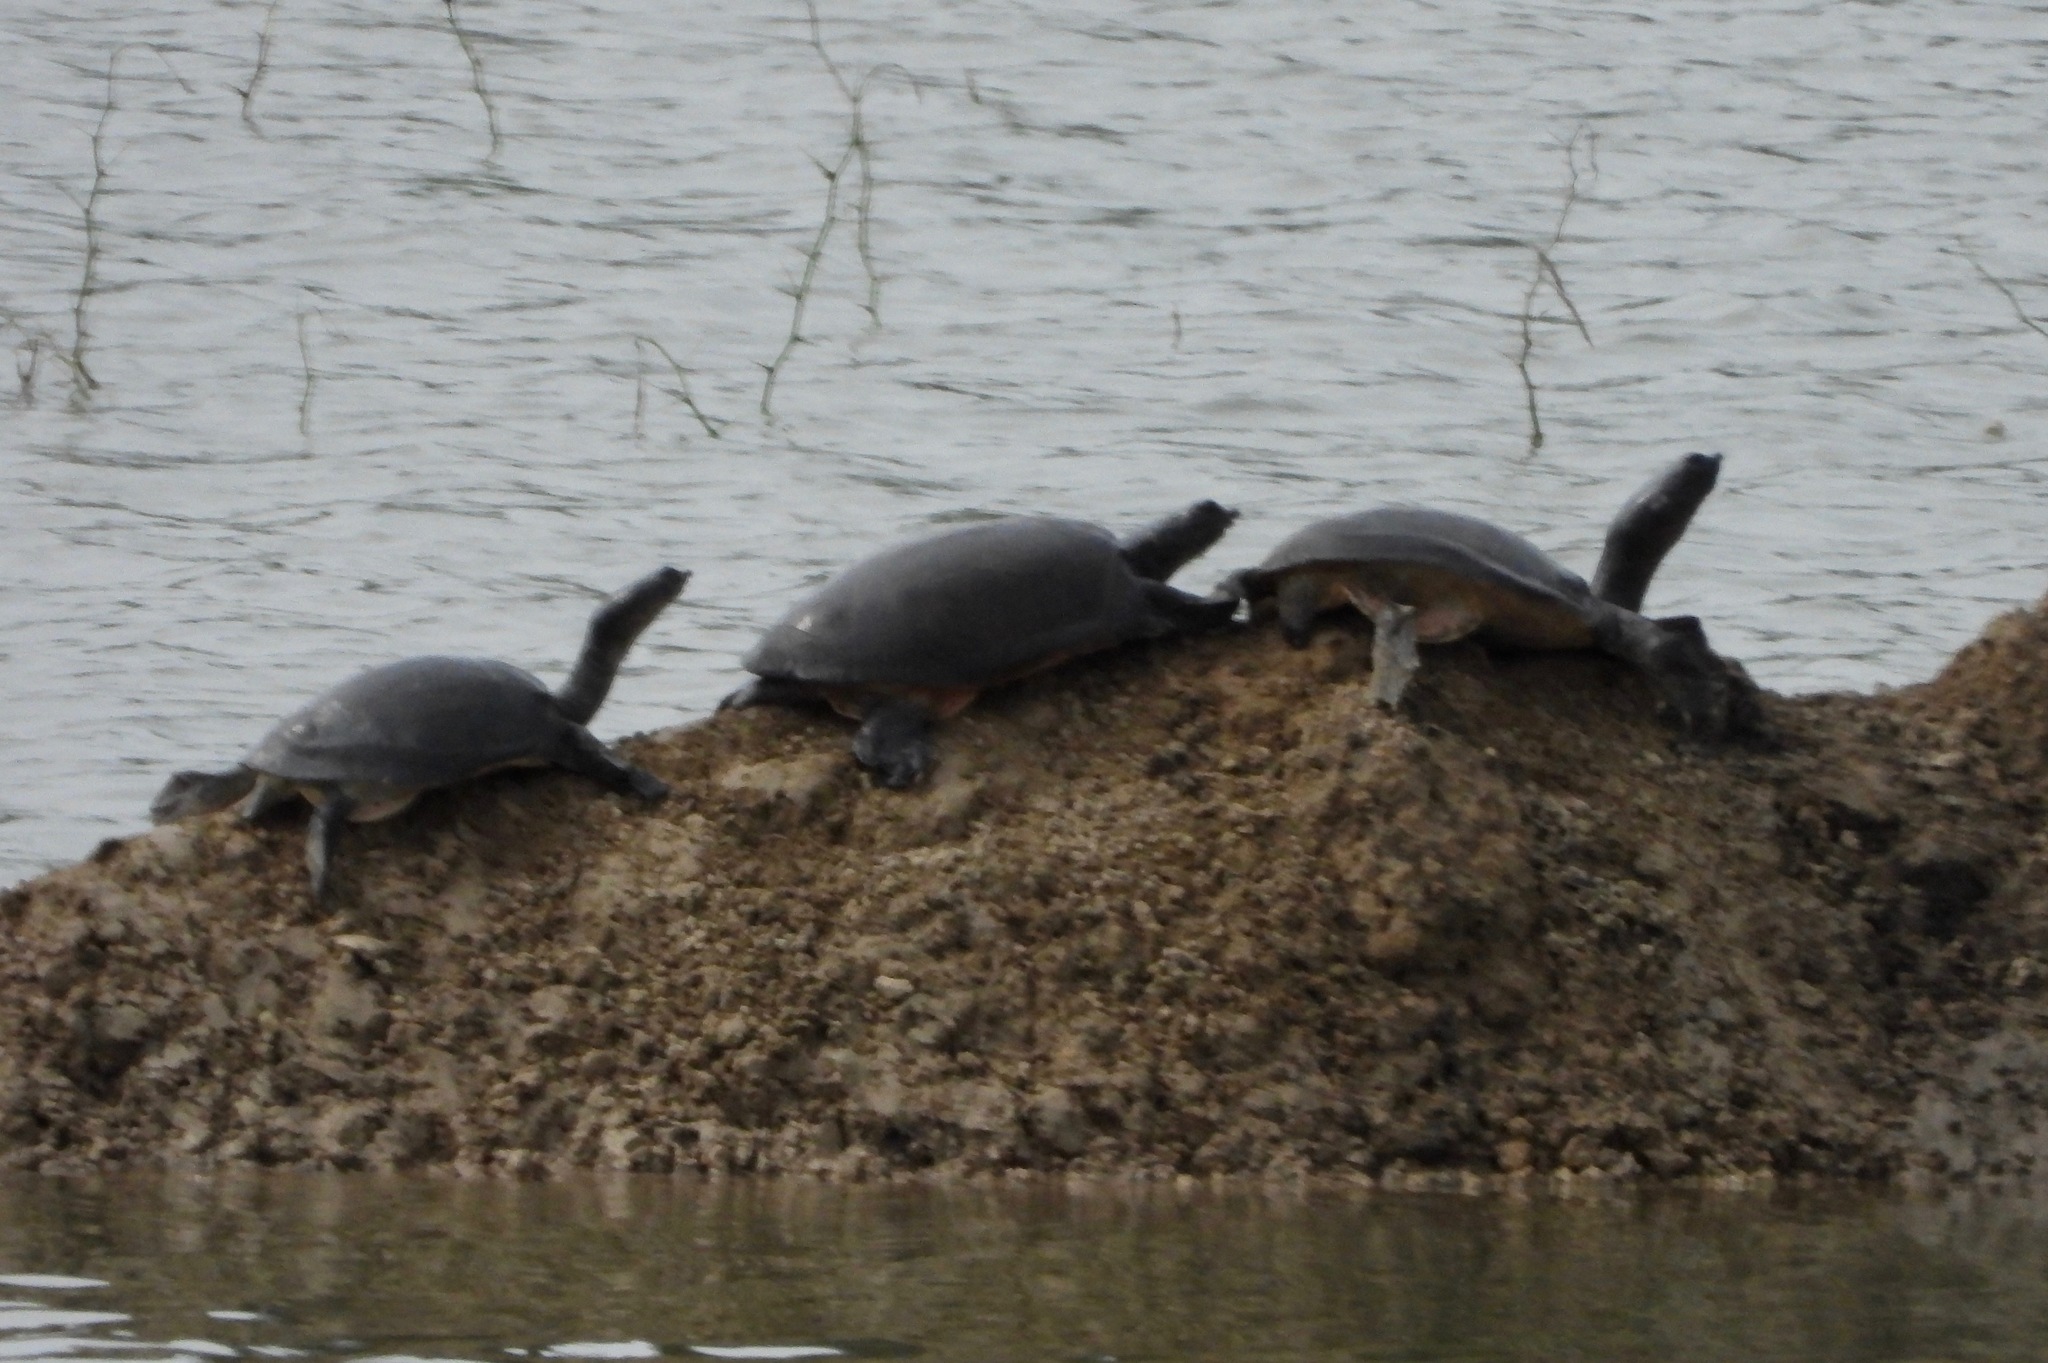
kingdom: Animalia
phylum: Chordata
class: Testudines
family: Trionychidae
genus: Lissemys
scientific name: Lissemys punctata
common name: Indian flap-shelled turtle
